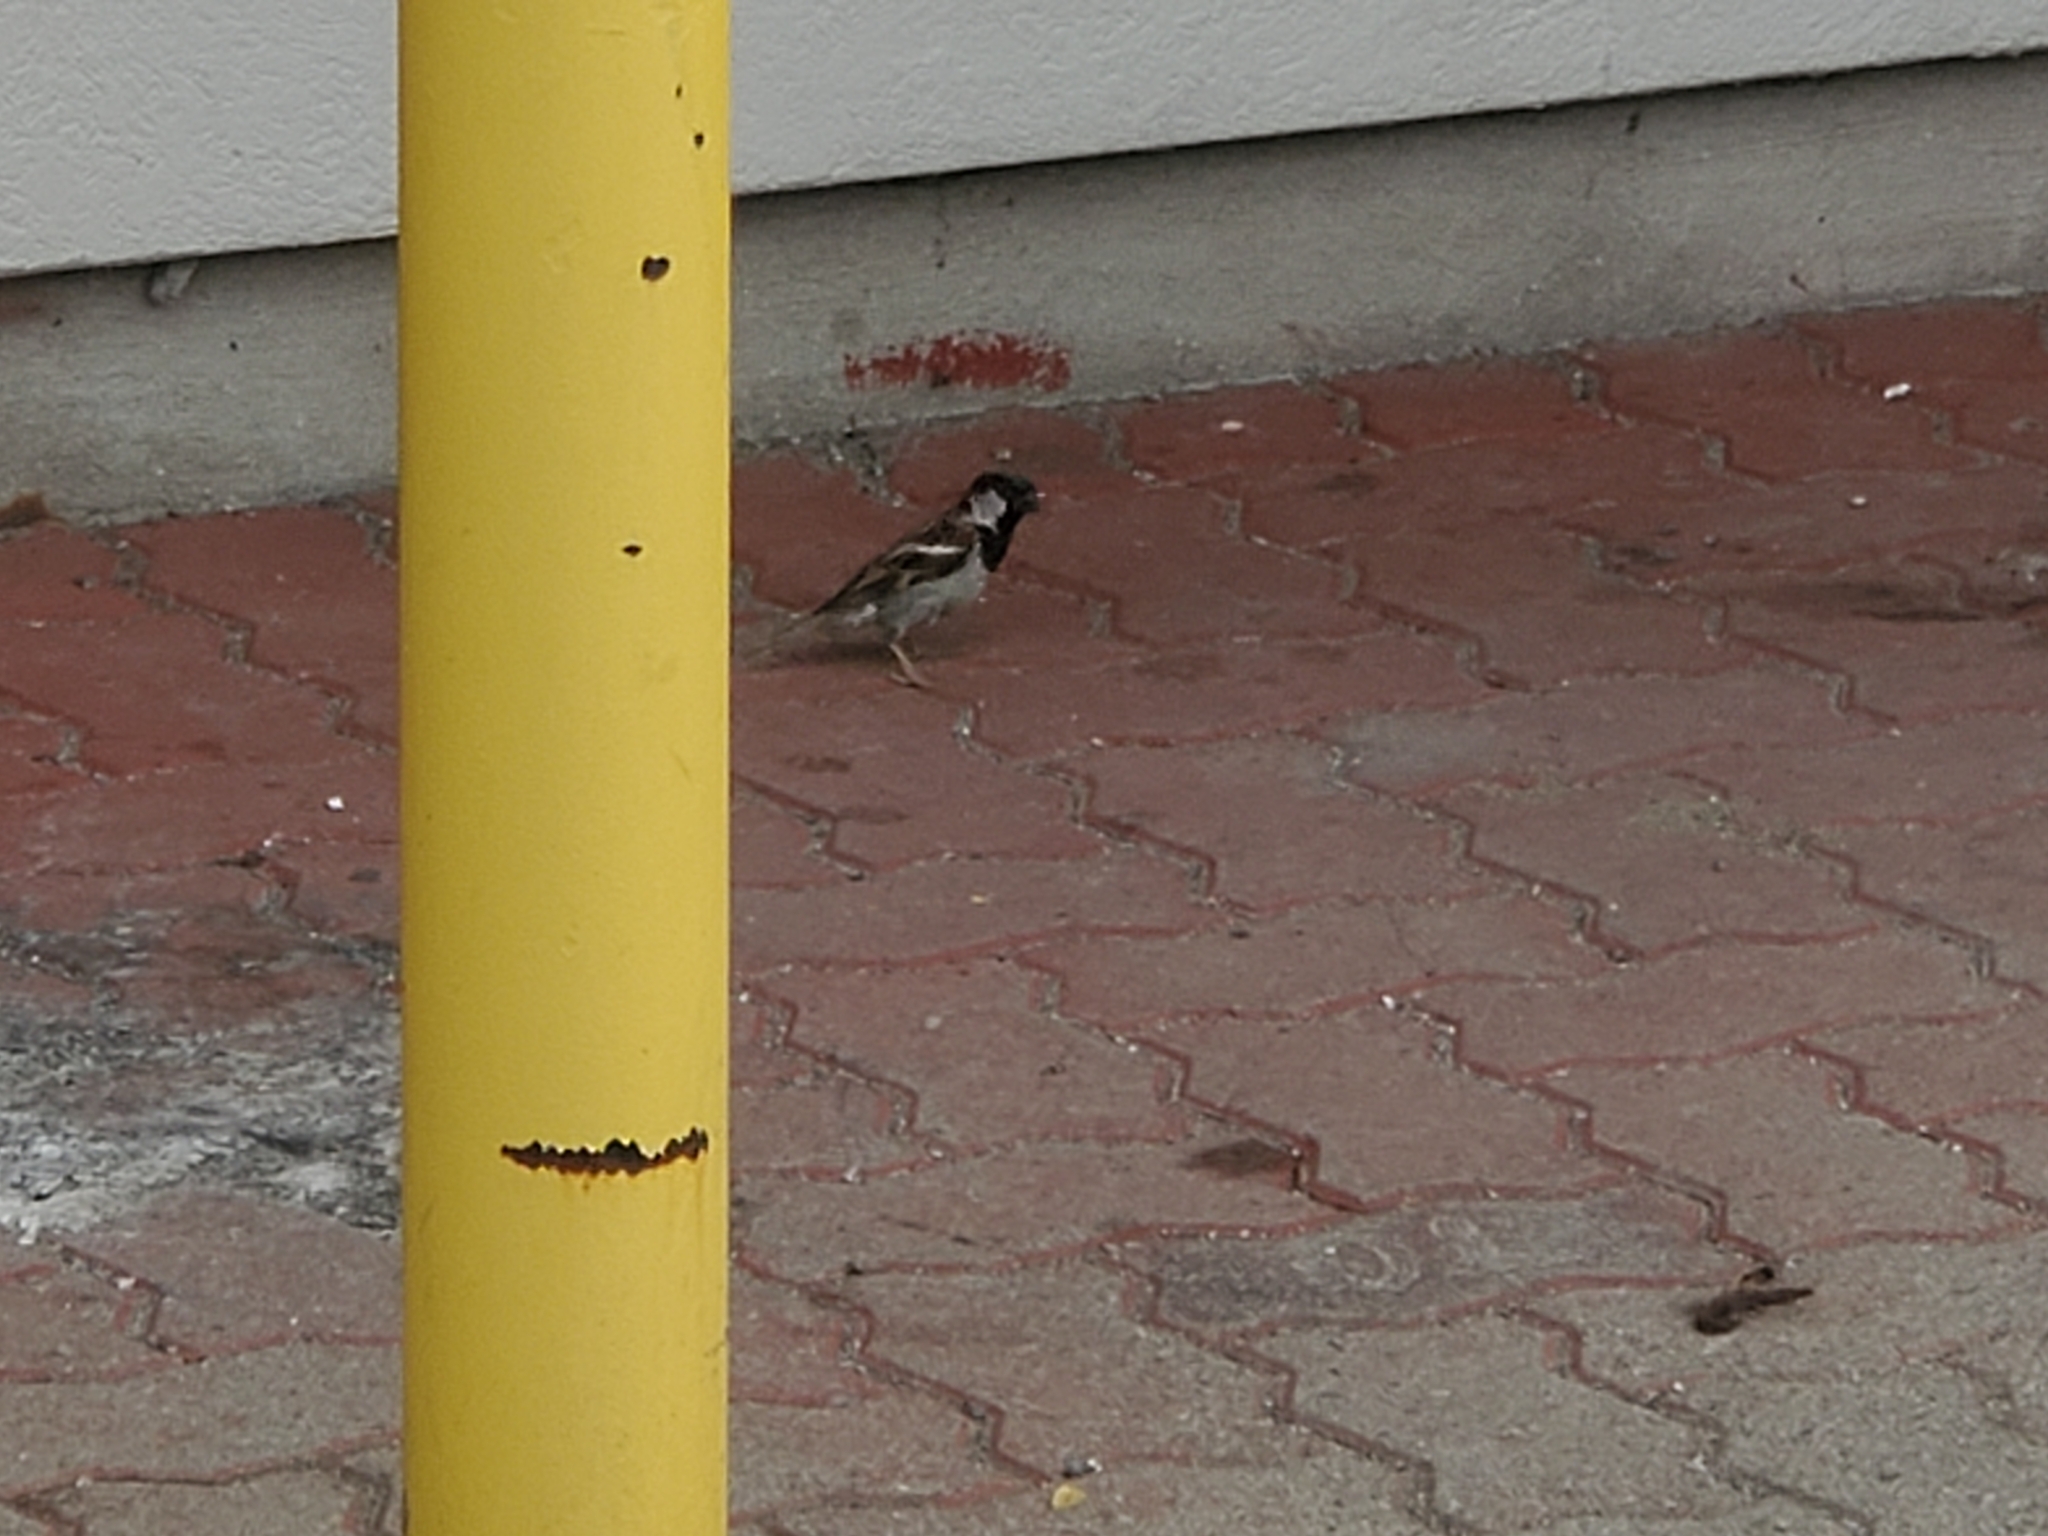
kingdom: Animalia
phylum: Chordata
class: Aves
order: Passeriformes
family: Passeridae
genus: Passer
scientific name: Passer domesticus
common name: House sparrow
